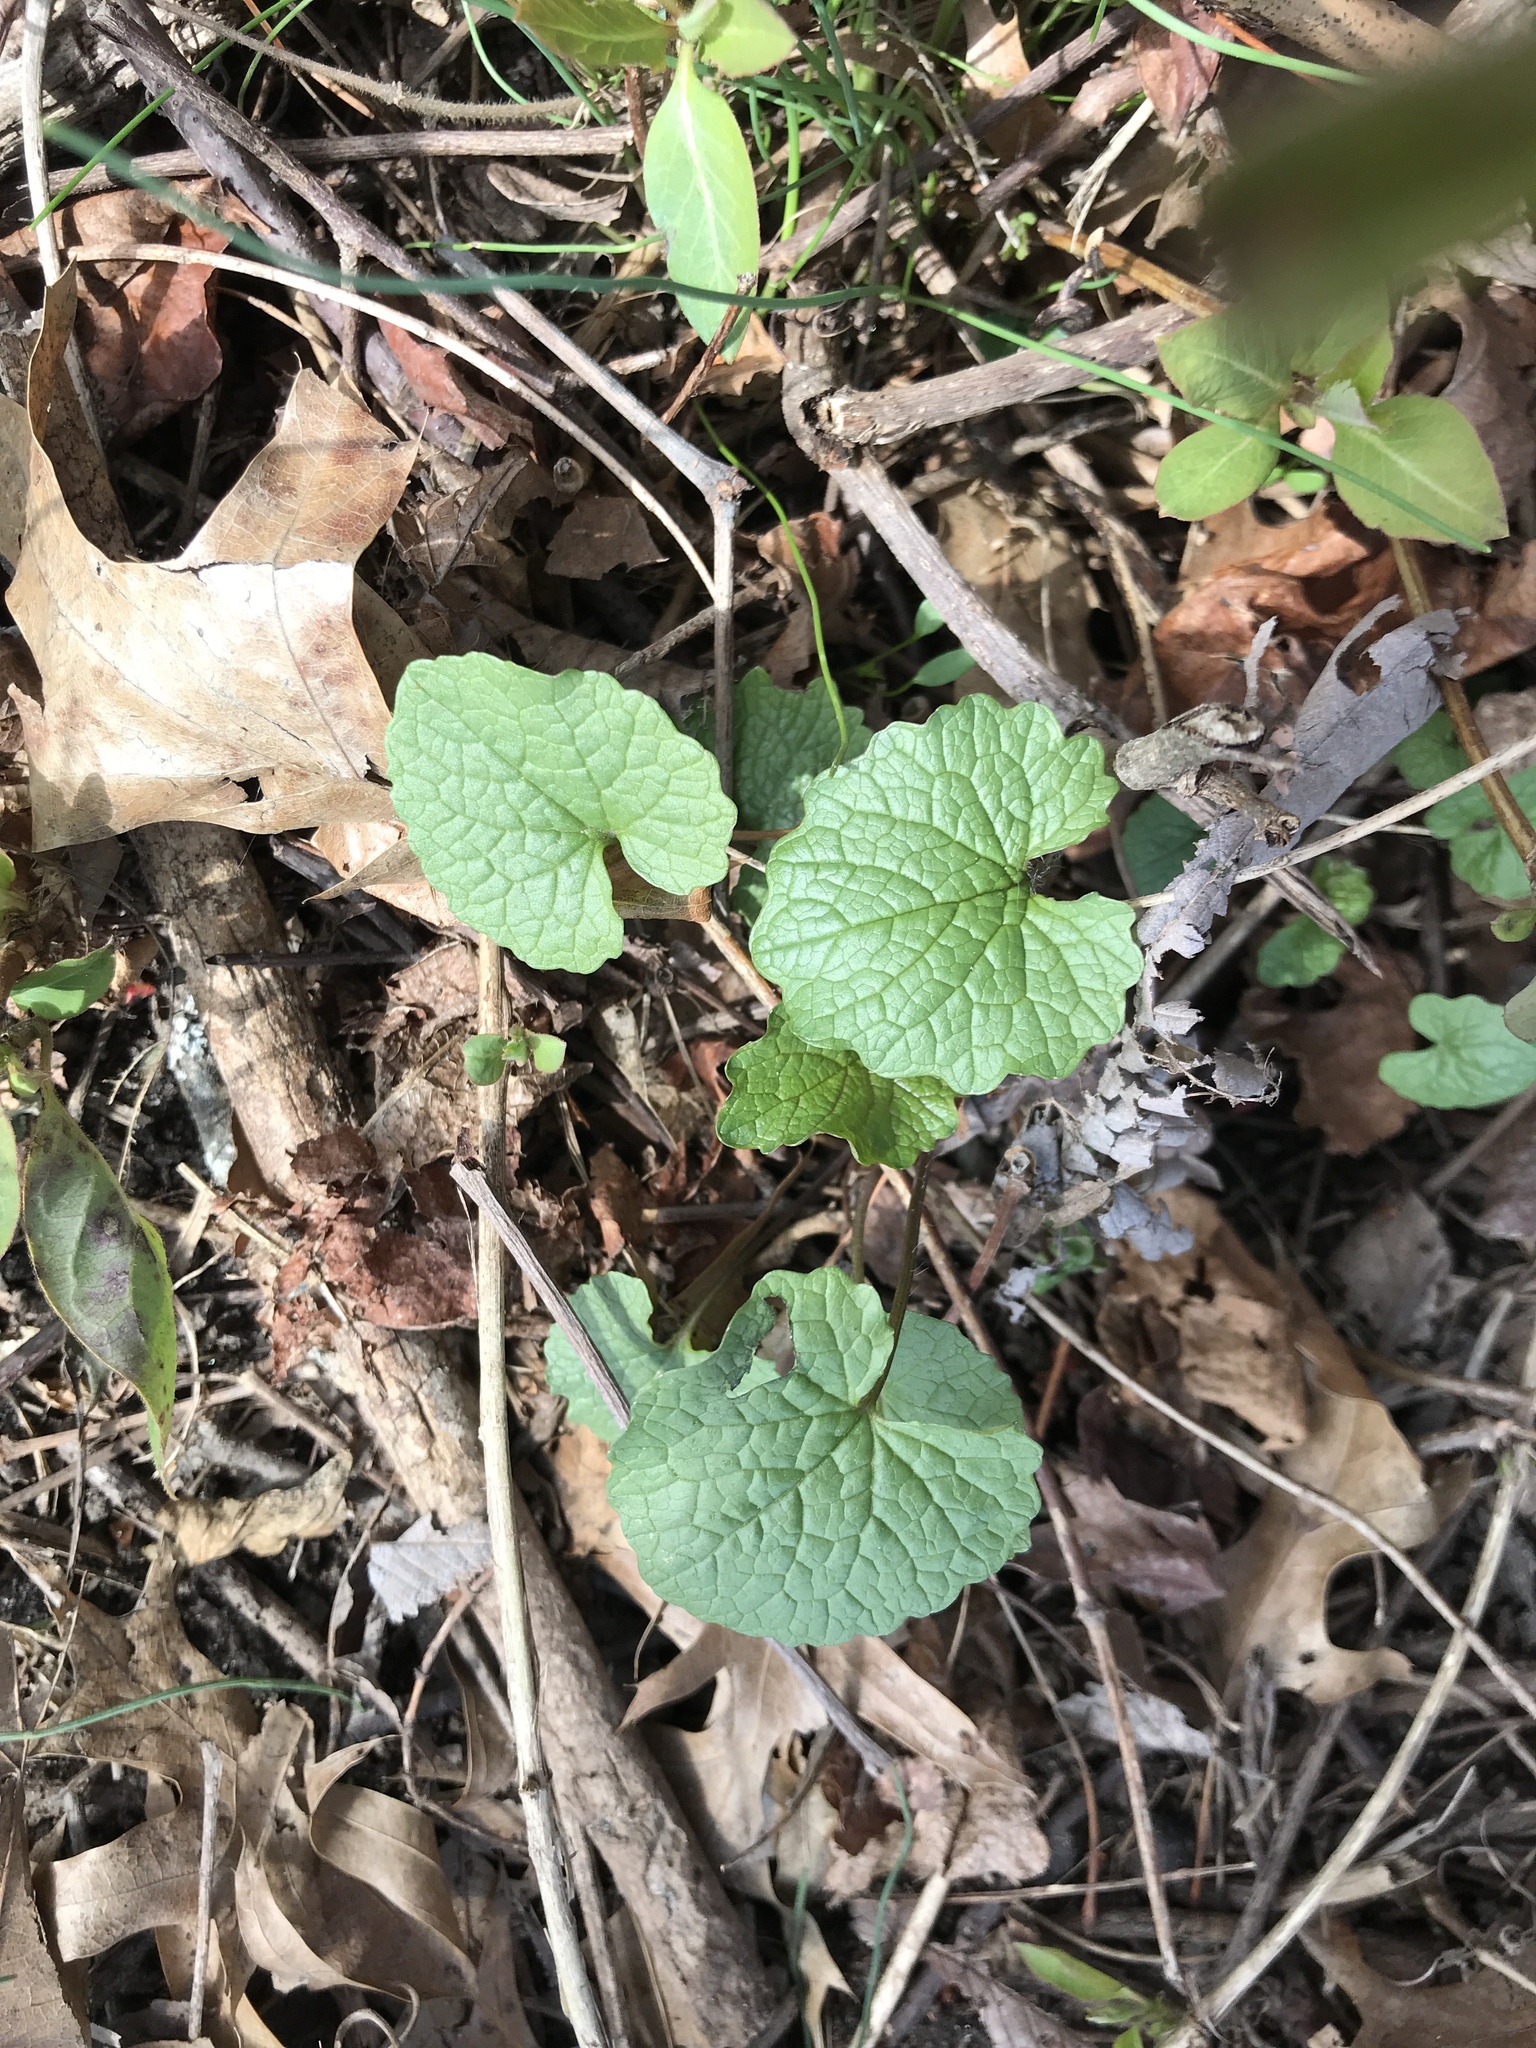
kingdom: Plantae
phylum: Tracheophyta
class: Magnoliopsida
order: Brassicales
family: Brassicaceae
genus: Alliaria
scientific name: Alliaria petiolata
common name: Garlic mustard
